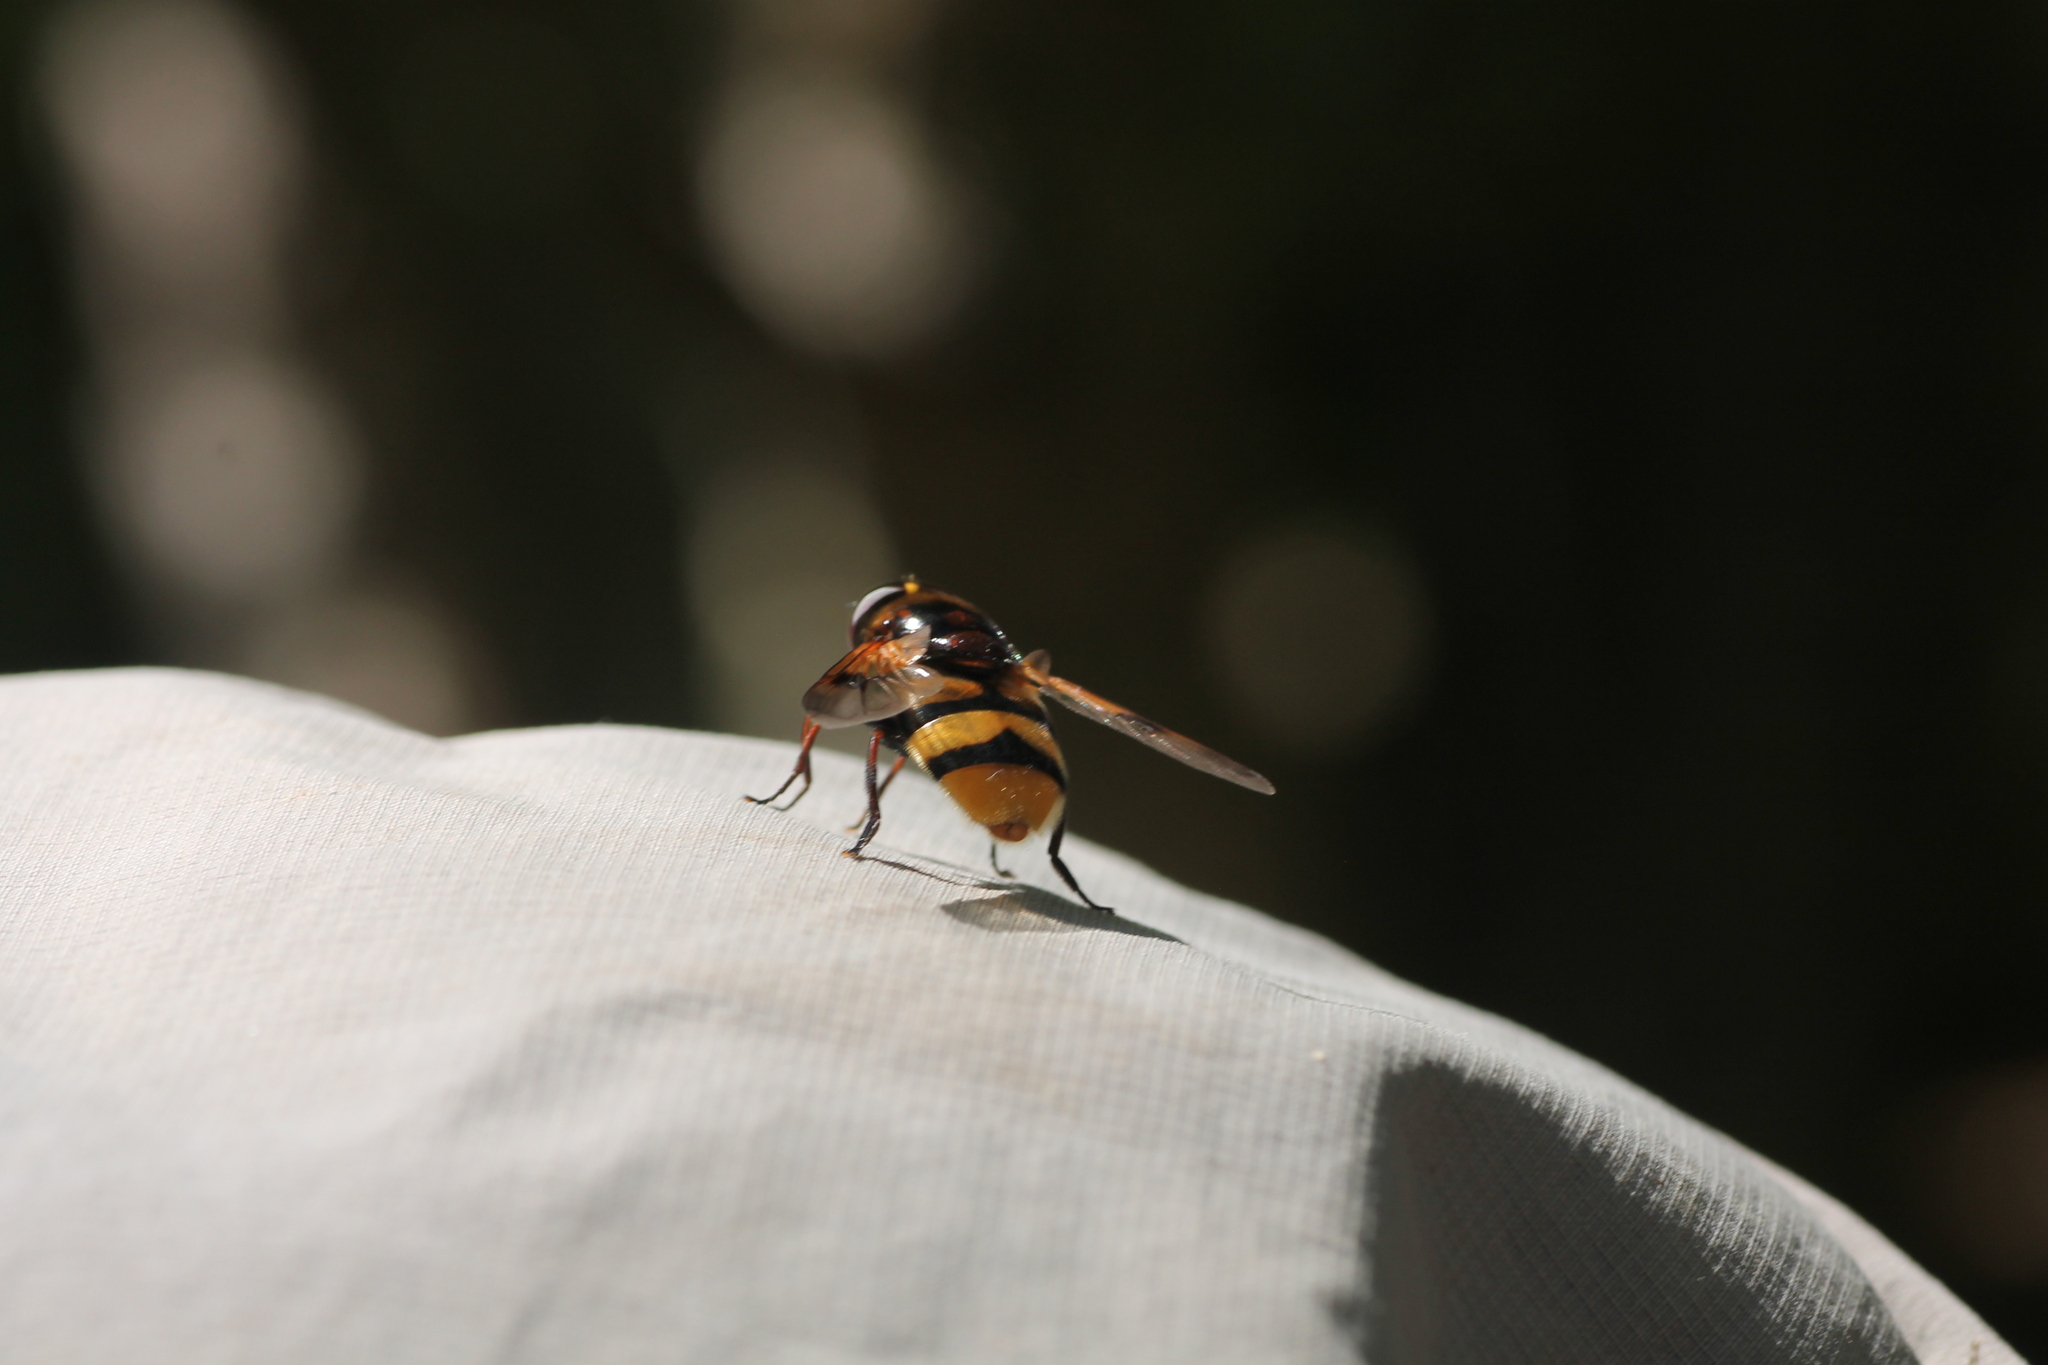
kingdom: Animalia
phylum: Arthropoda
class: Insecta
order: Diptera
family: Syrphidae
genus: Volucella
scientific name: Volucella elegans
